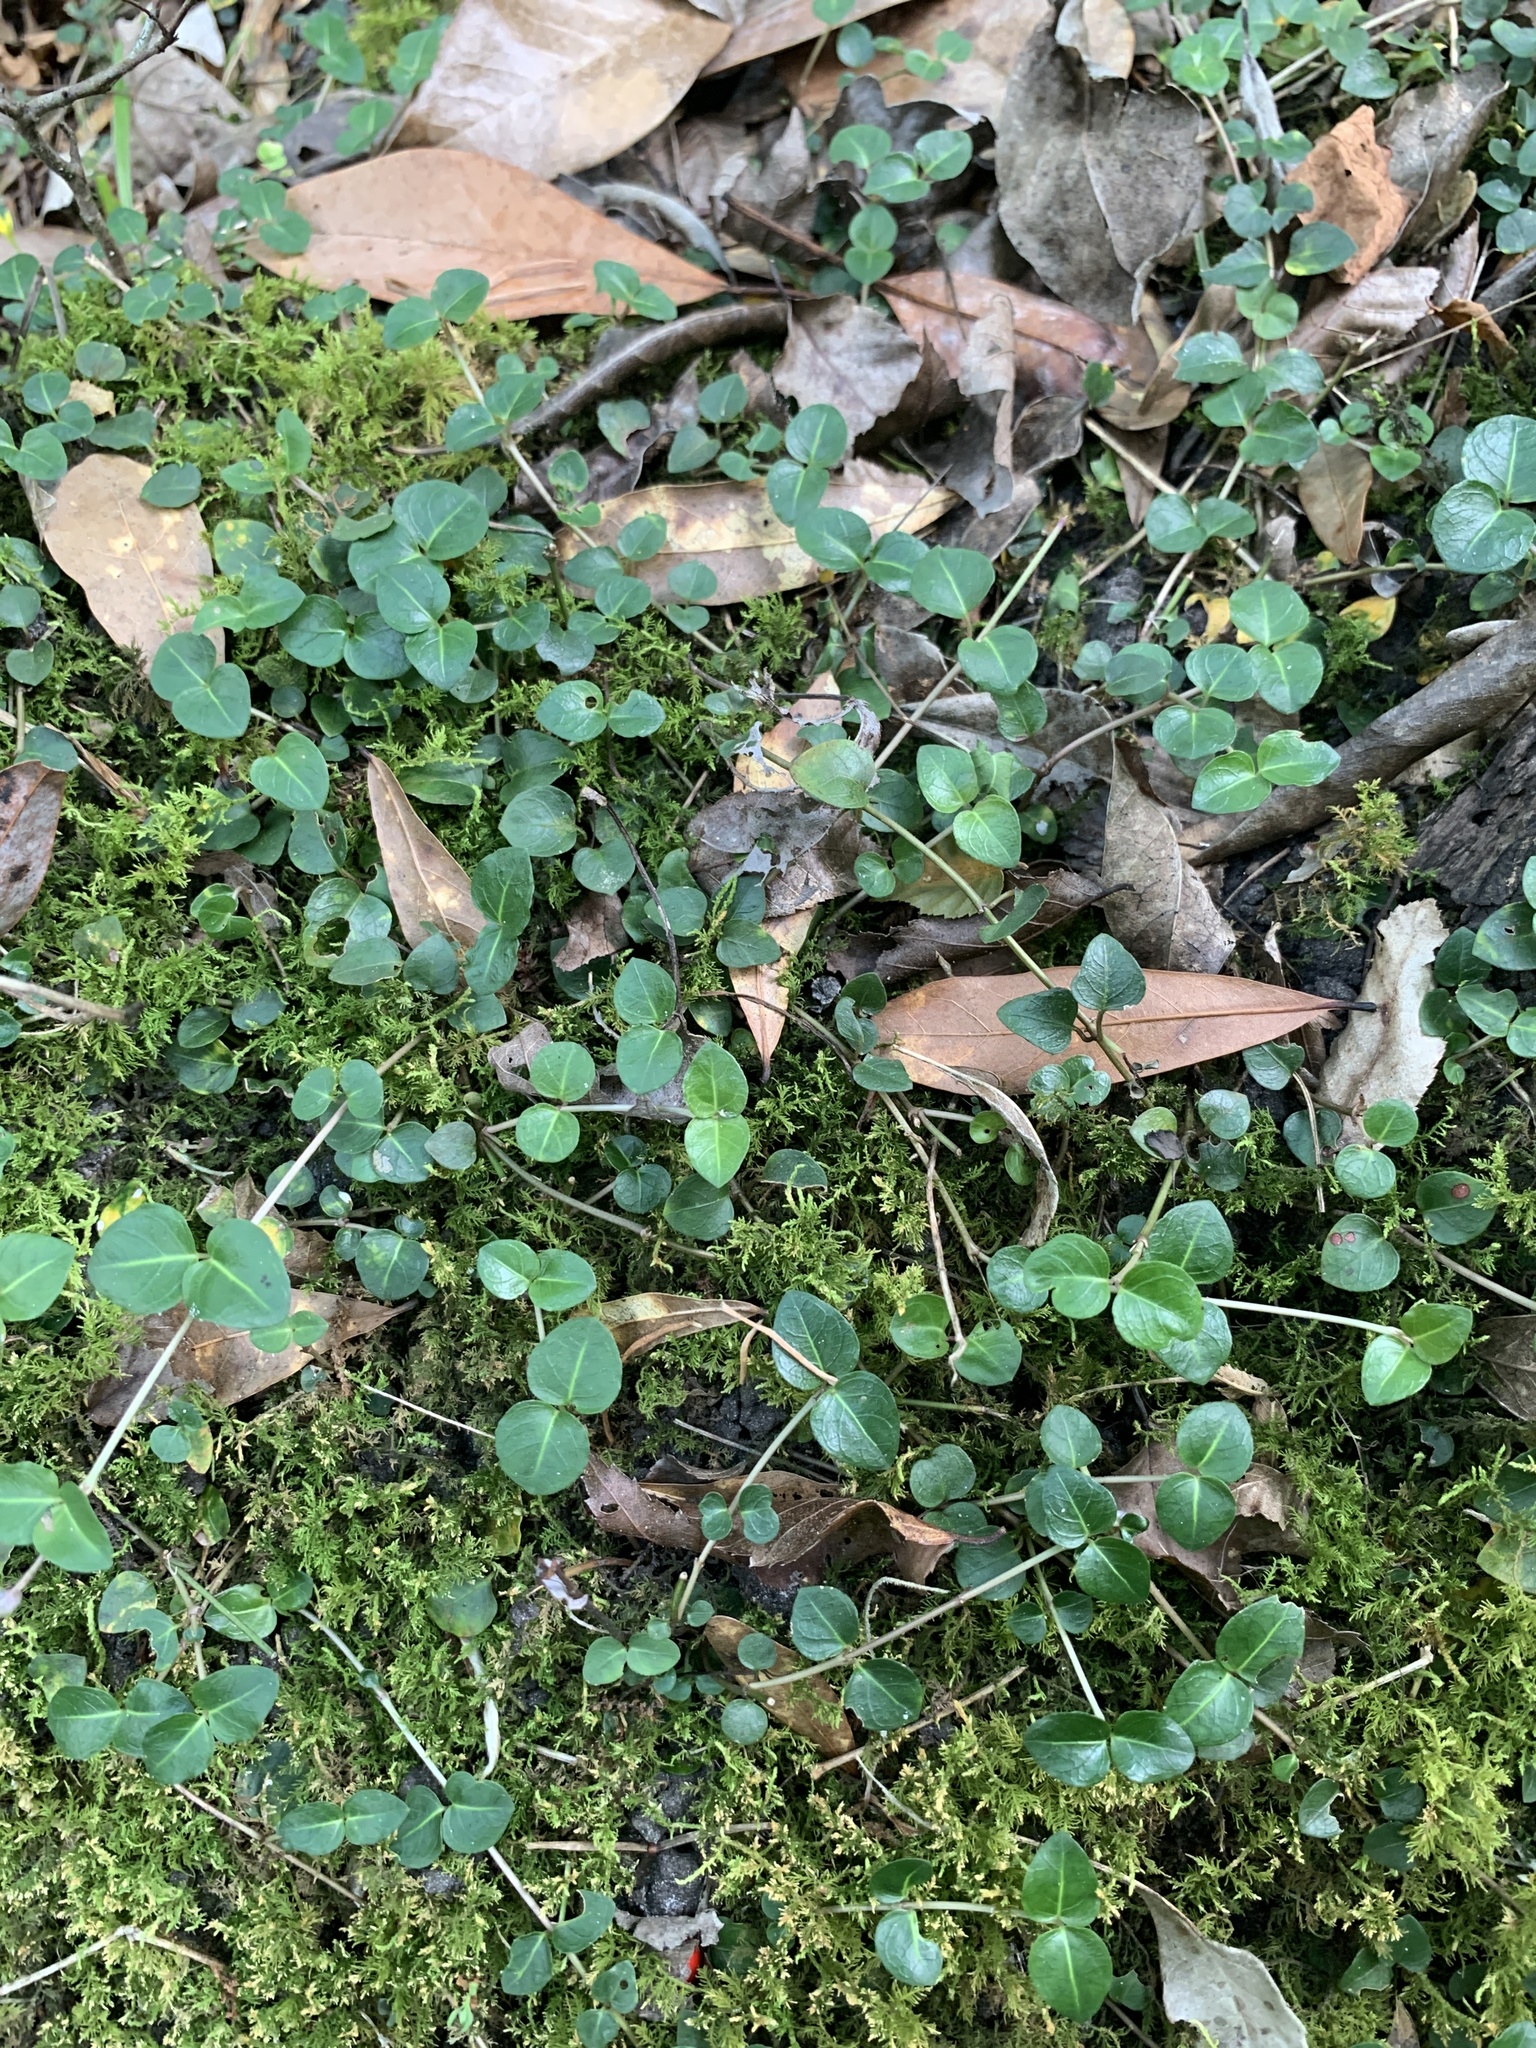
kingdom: Plantae
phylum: Tracheophyta
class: Magnoliopsida
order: Gentianales
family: Rubiaceae
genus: Mitchella
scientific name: Mitchella repens
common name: Partridge-berry
